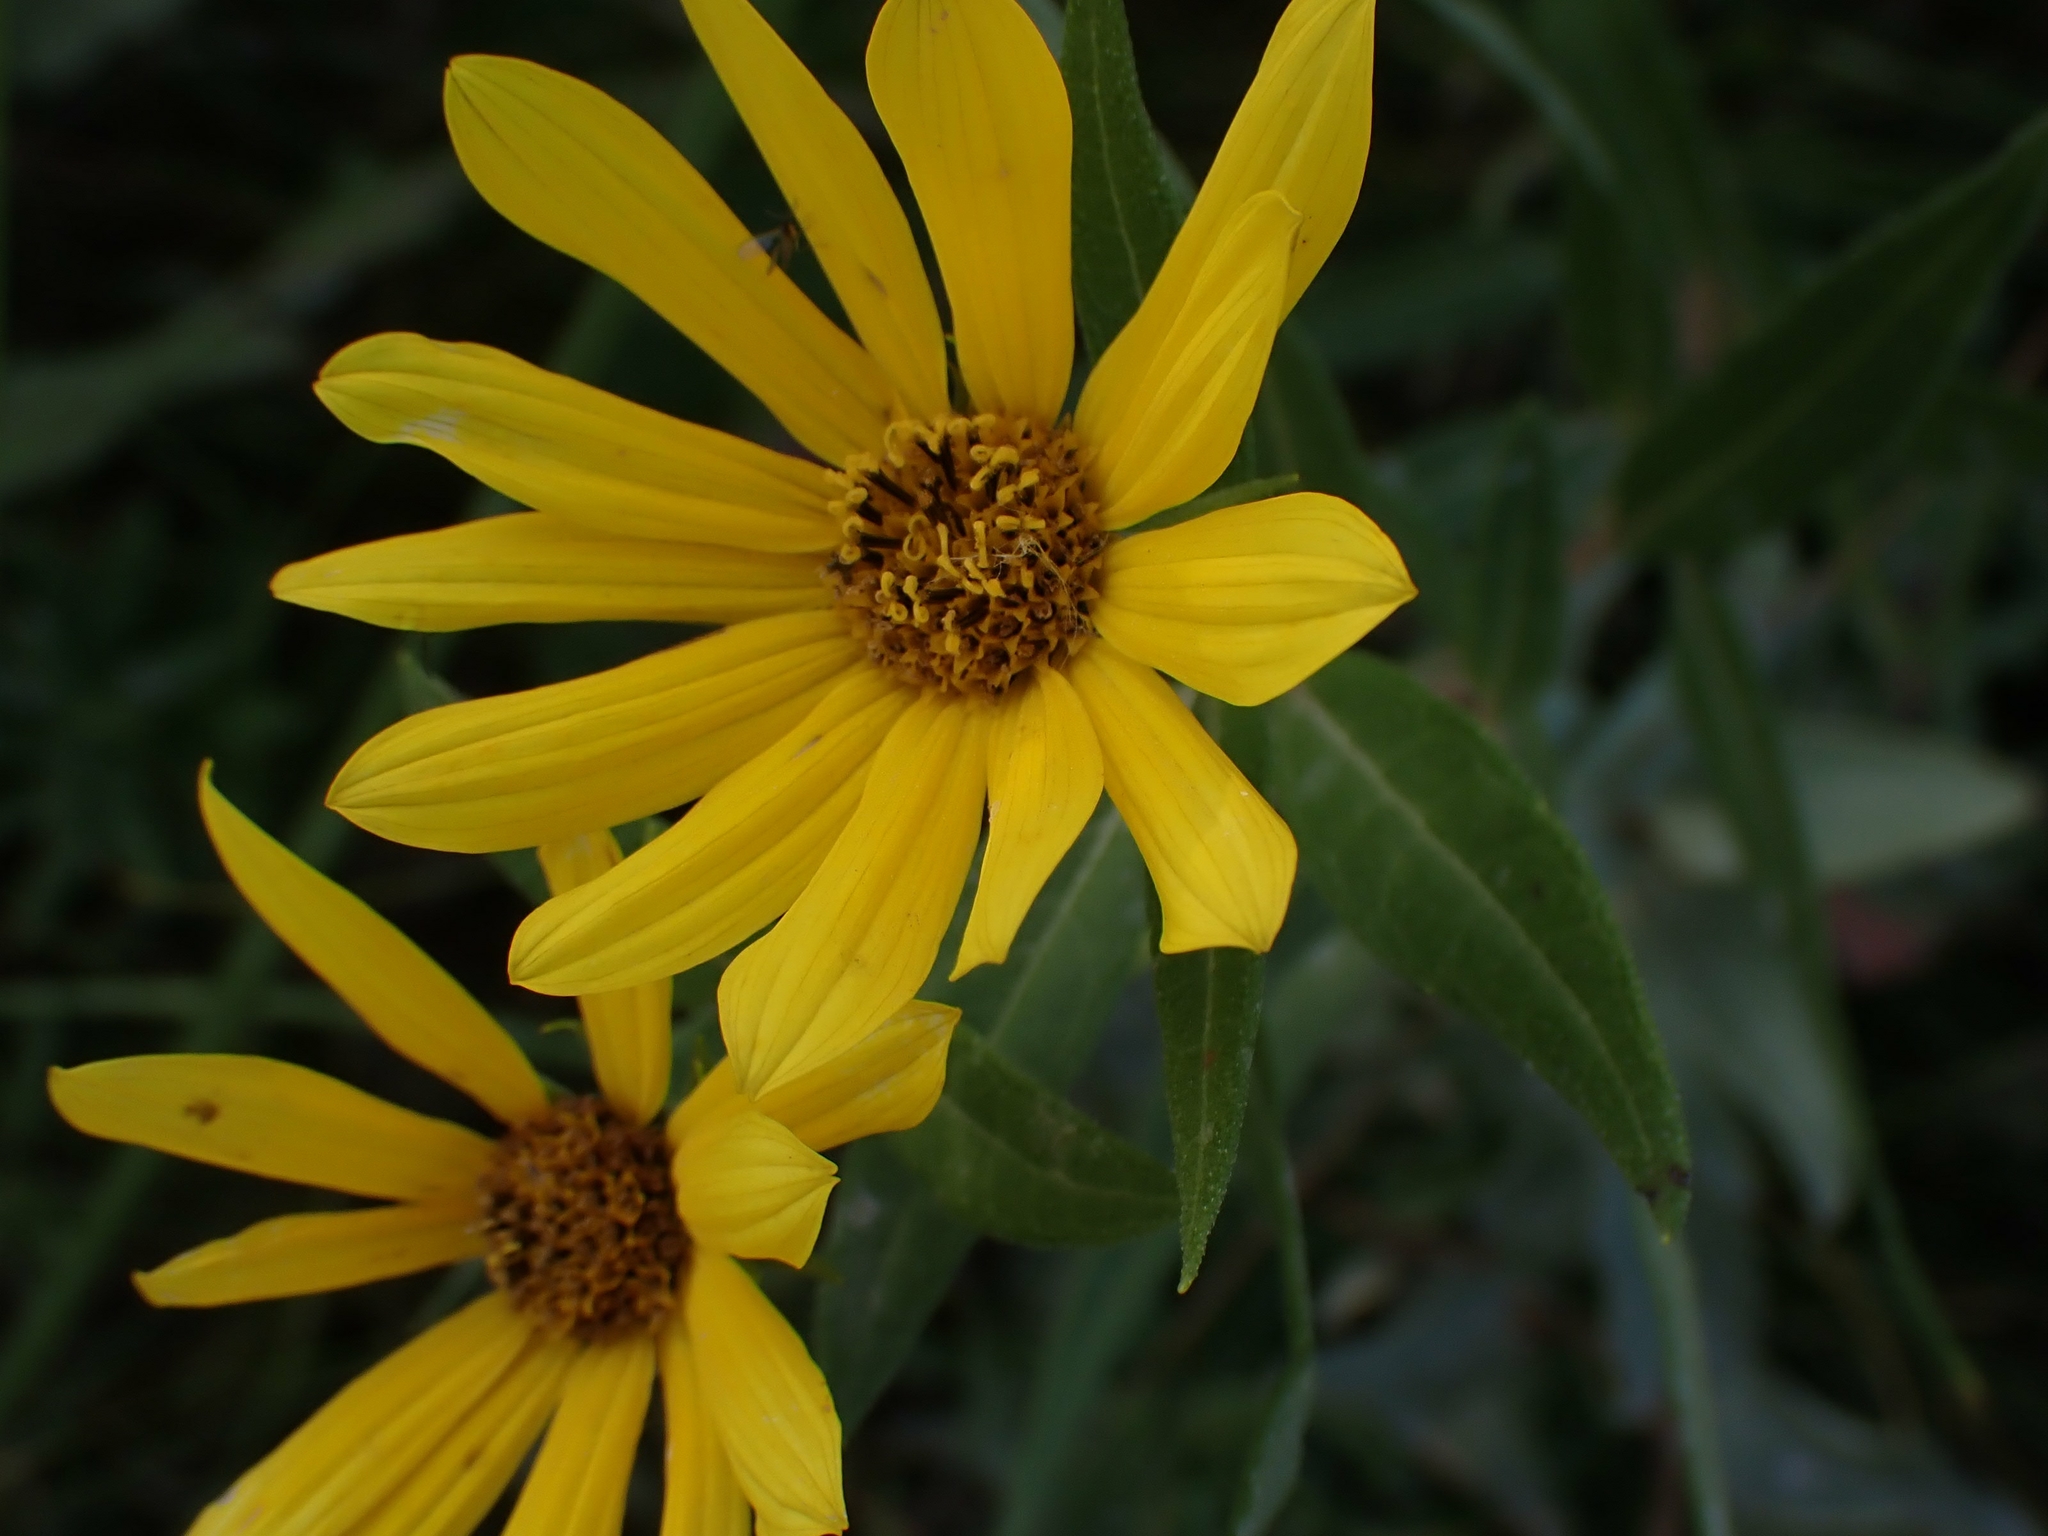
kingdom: Plantae
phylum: Tracheophyta
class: Magnoliopsida
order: Asterales
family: Asteraceae
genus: Helianthus
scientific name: Helianthus maximiliani
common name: Maximilian's sunflower
